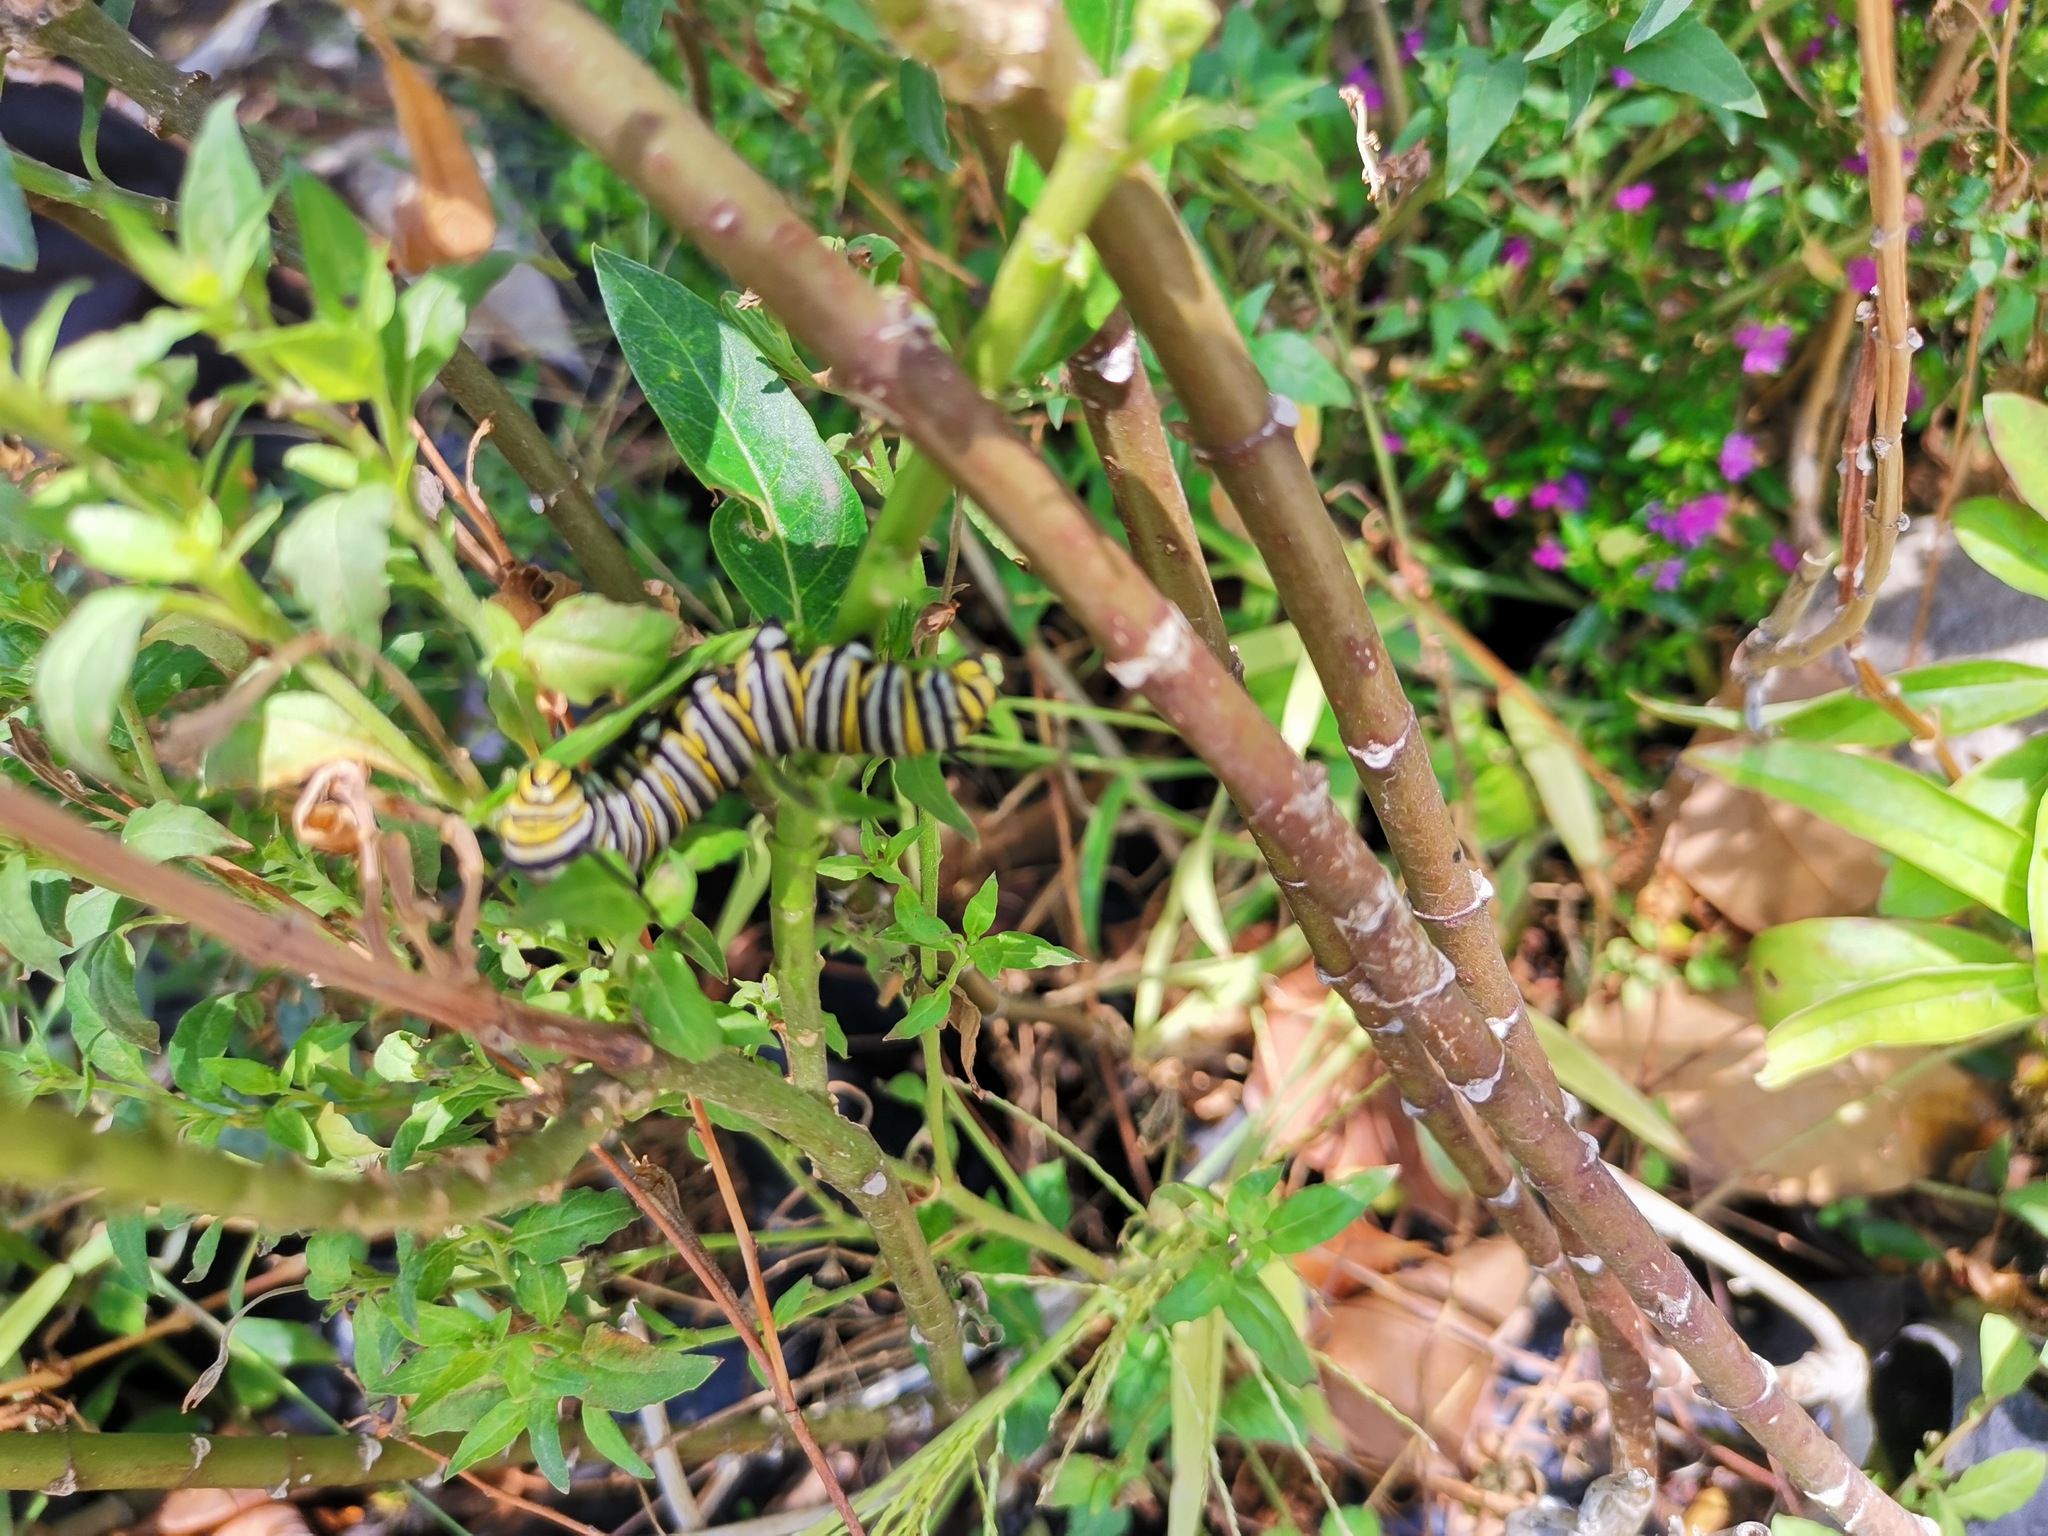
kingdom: Animalia
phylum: Arthropoda
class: Insecta
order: Lepidoptera
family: Nymphalidae
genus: Danaus
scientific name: Danaus plexippus
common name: Monarch
